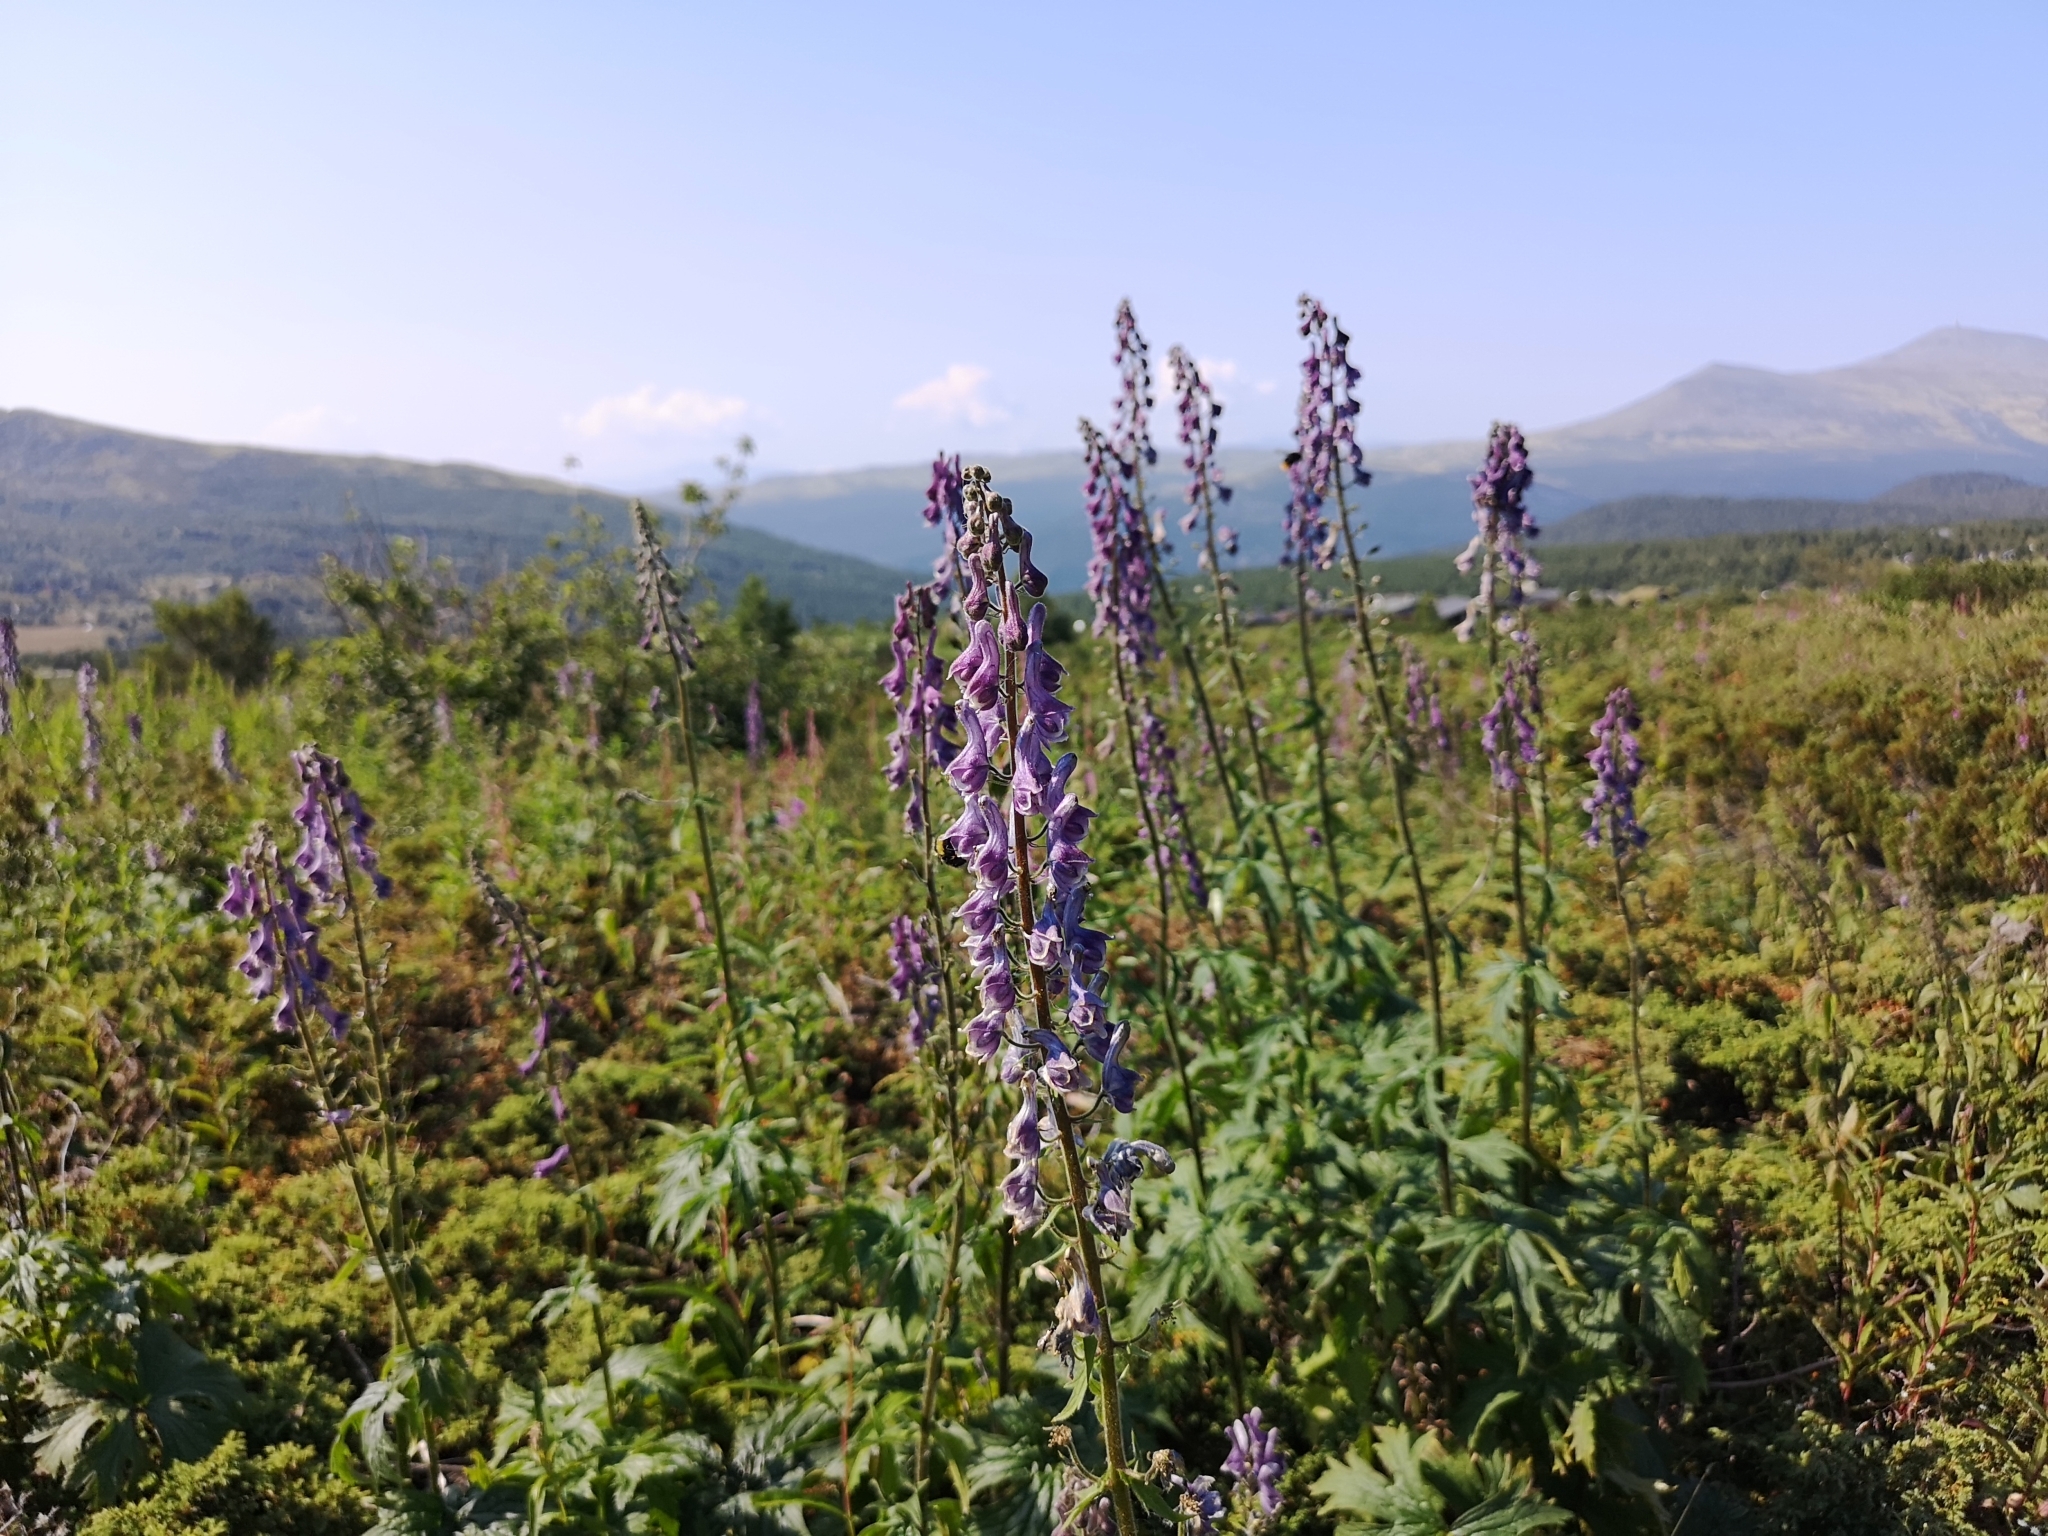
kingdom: Plantae
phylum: Tracheophyta
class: Magnoliopsida
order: Ranunculales
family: Ranunculaceae
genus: Aconitum
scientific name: Aconitum septentrionale
